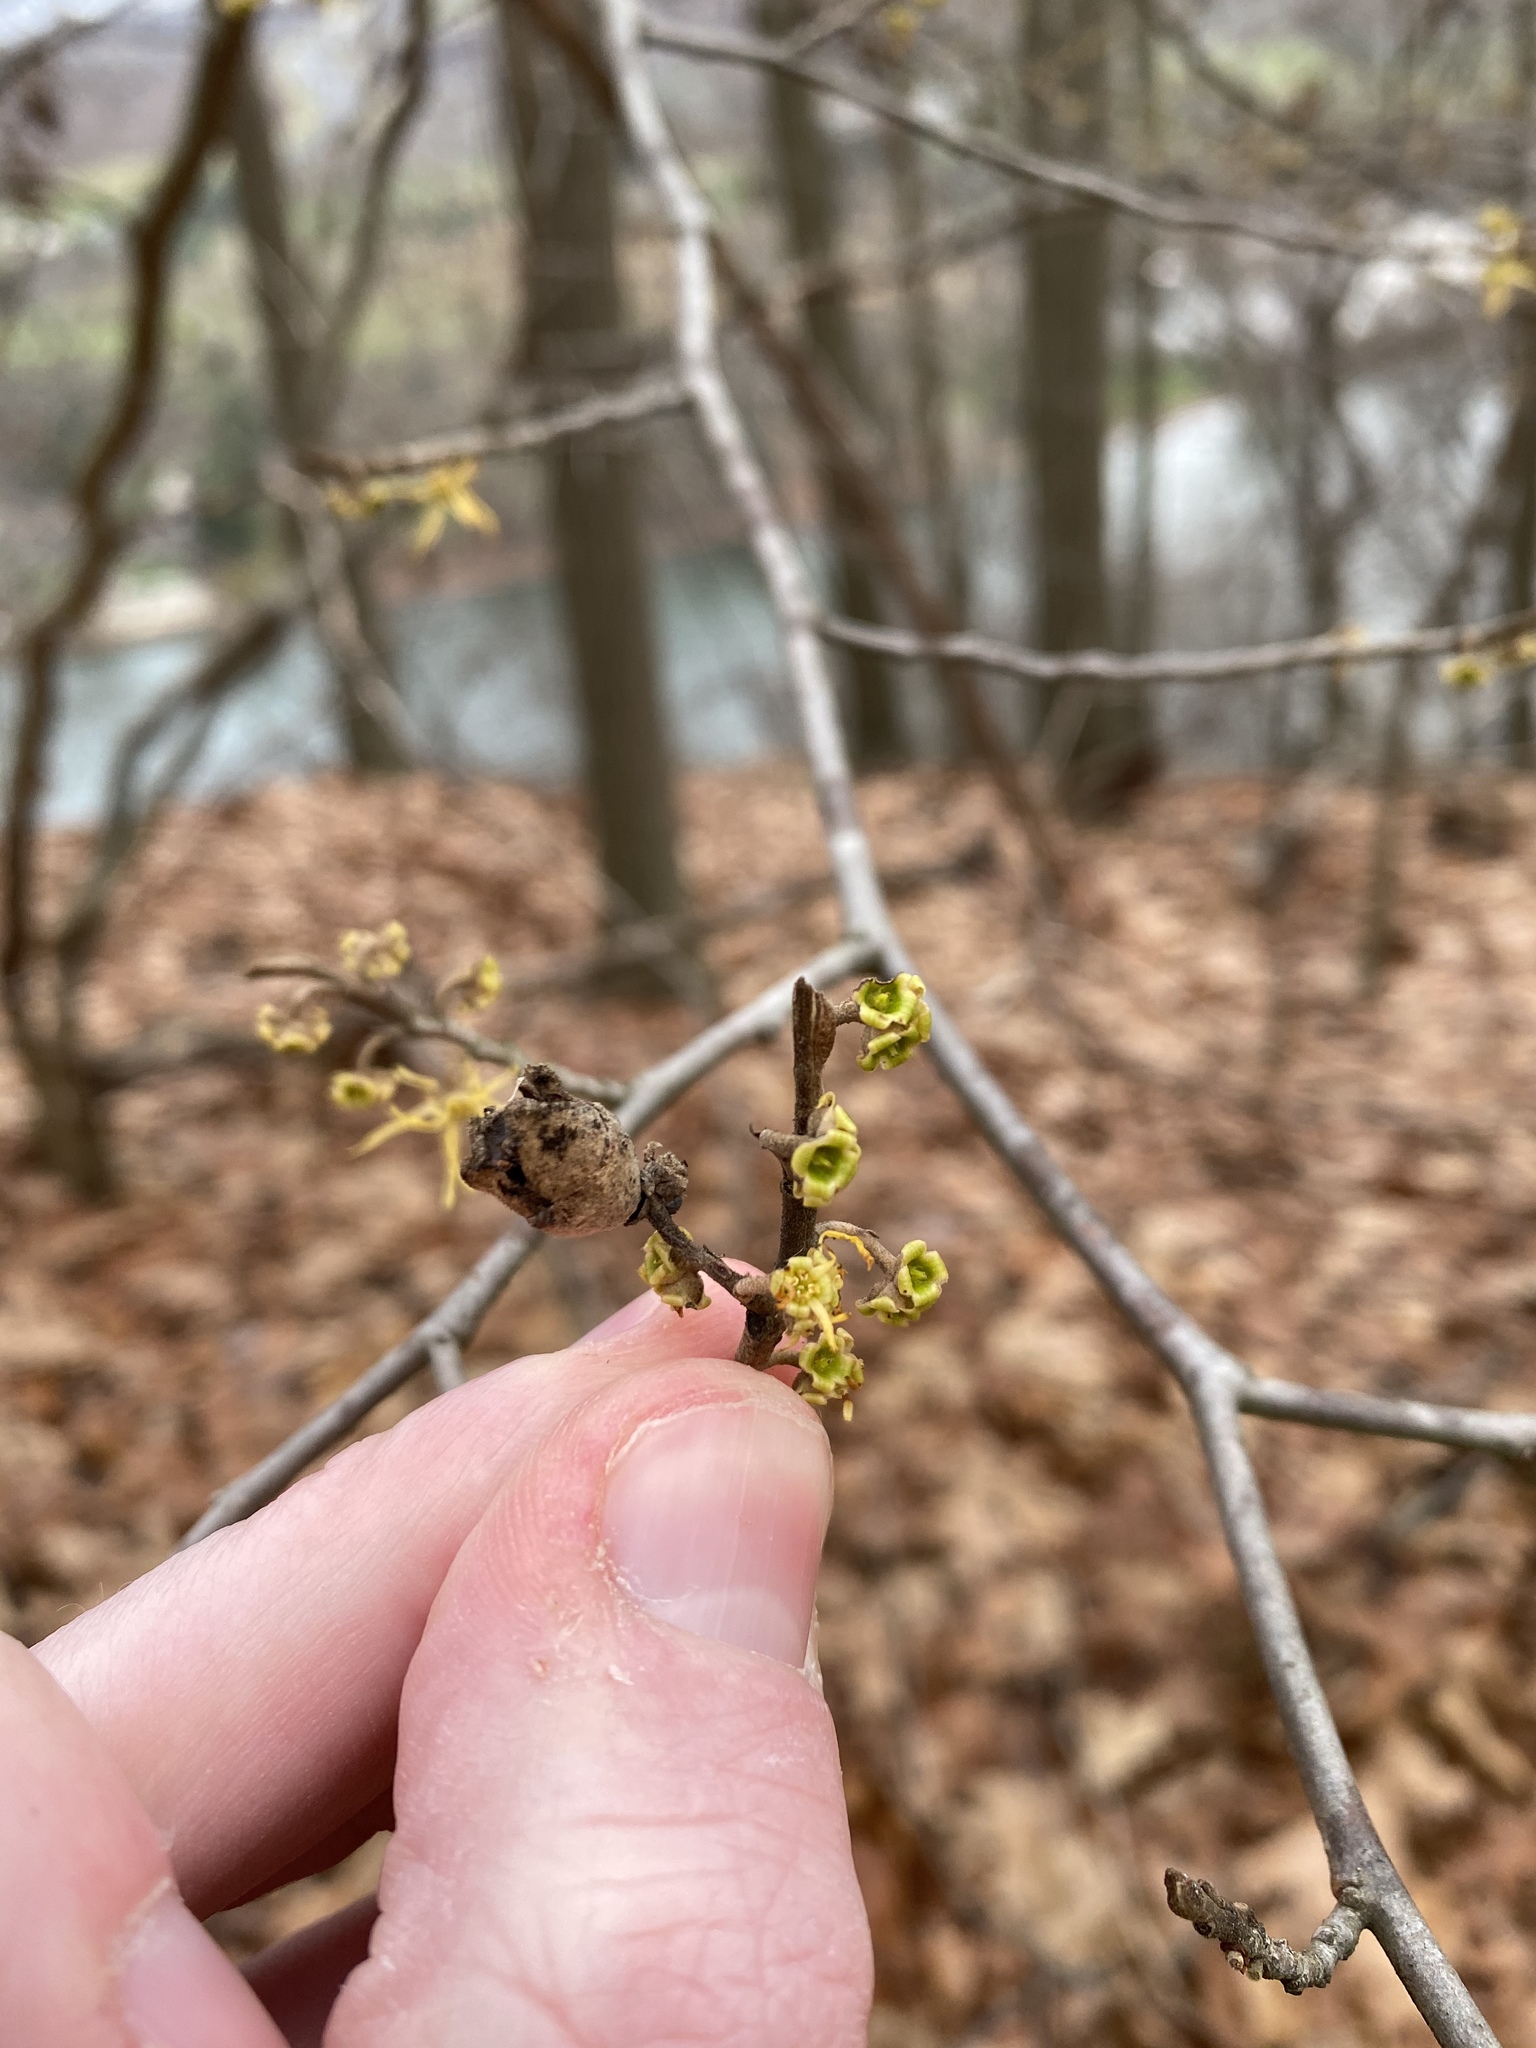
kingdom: Plantae
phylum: Tracheophyta
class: Magnoliopsida
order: Saxifragales
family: Hamamelidaceae
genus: Hamamelis
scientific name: Hamamelis virginiana
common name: Witch-hazel
